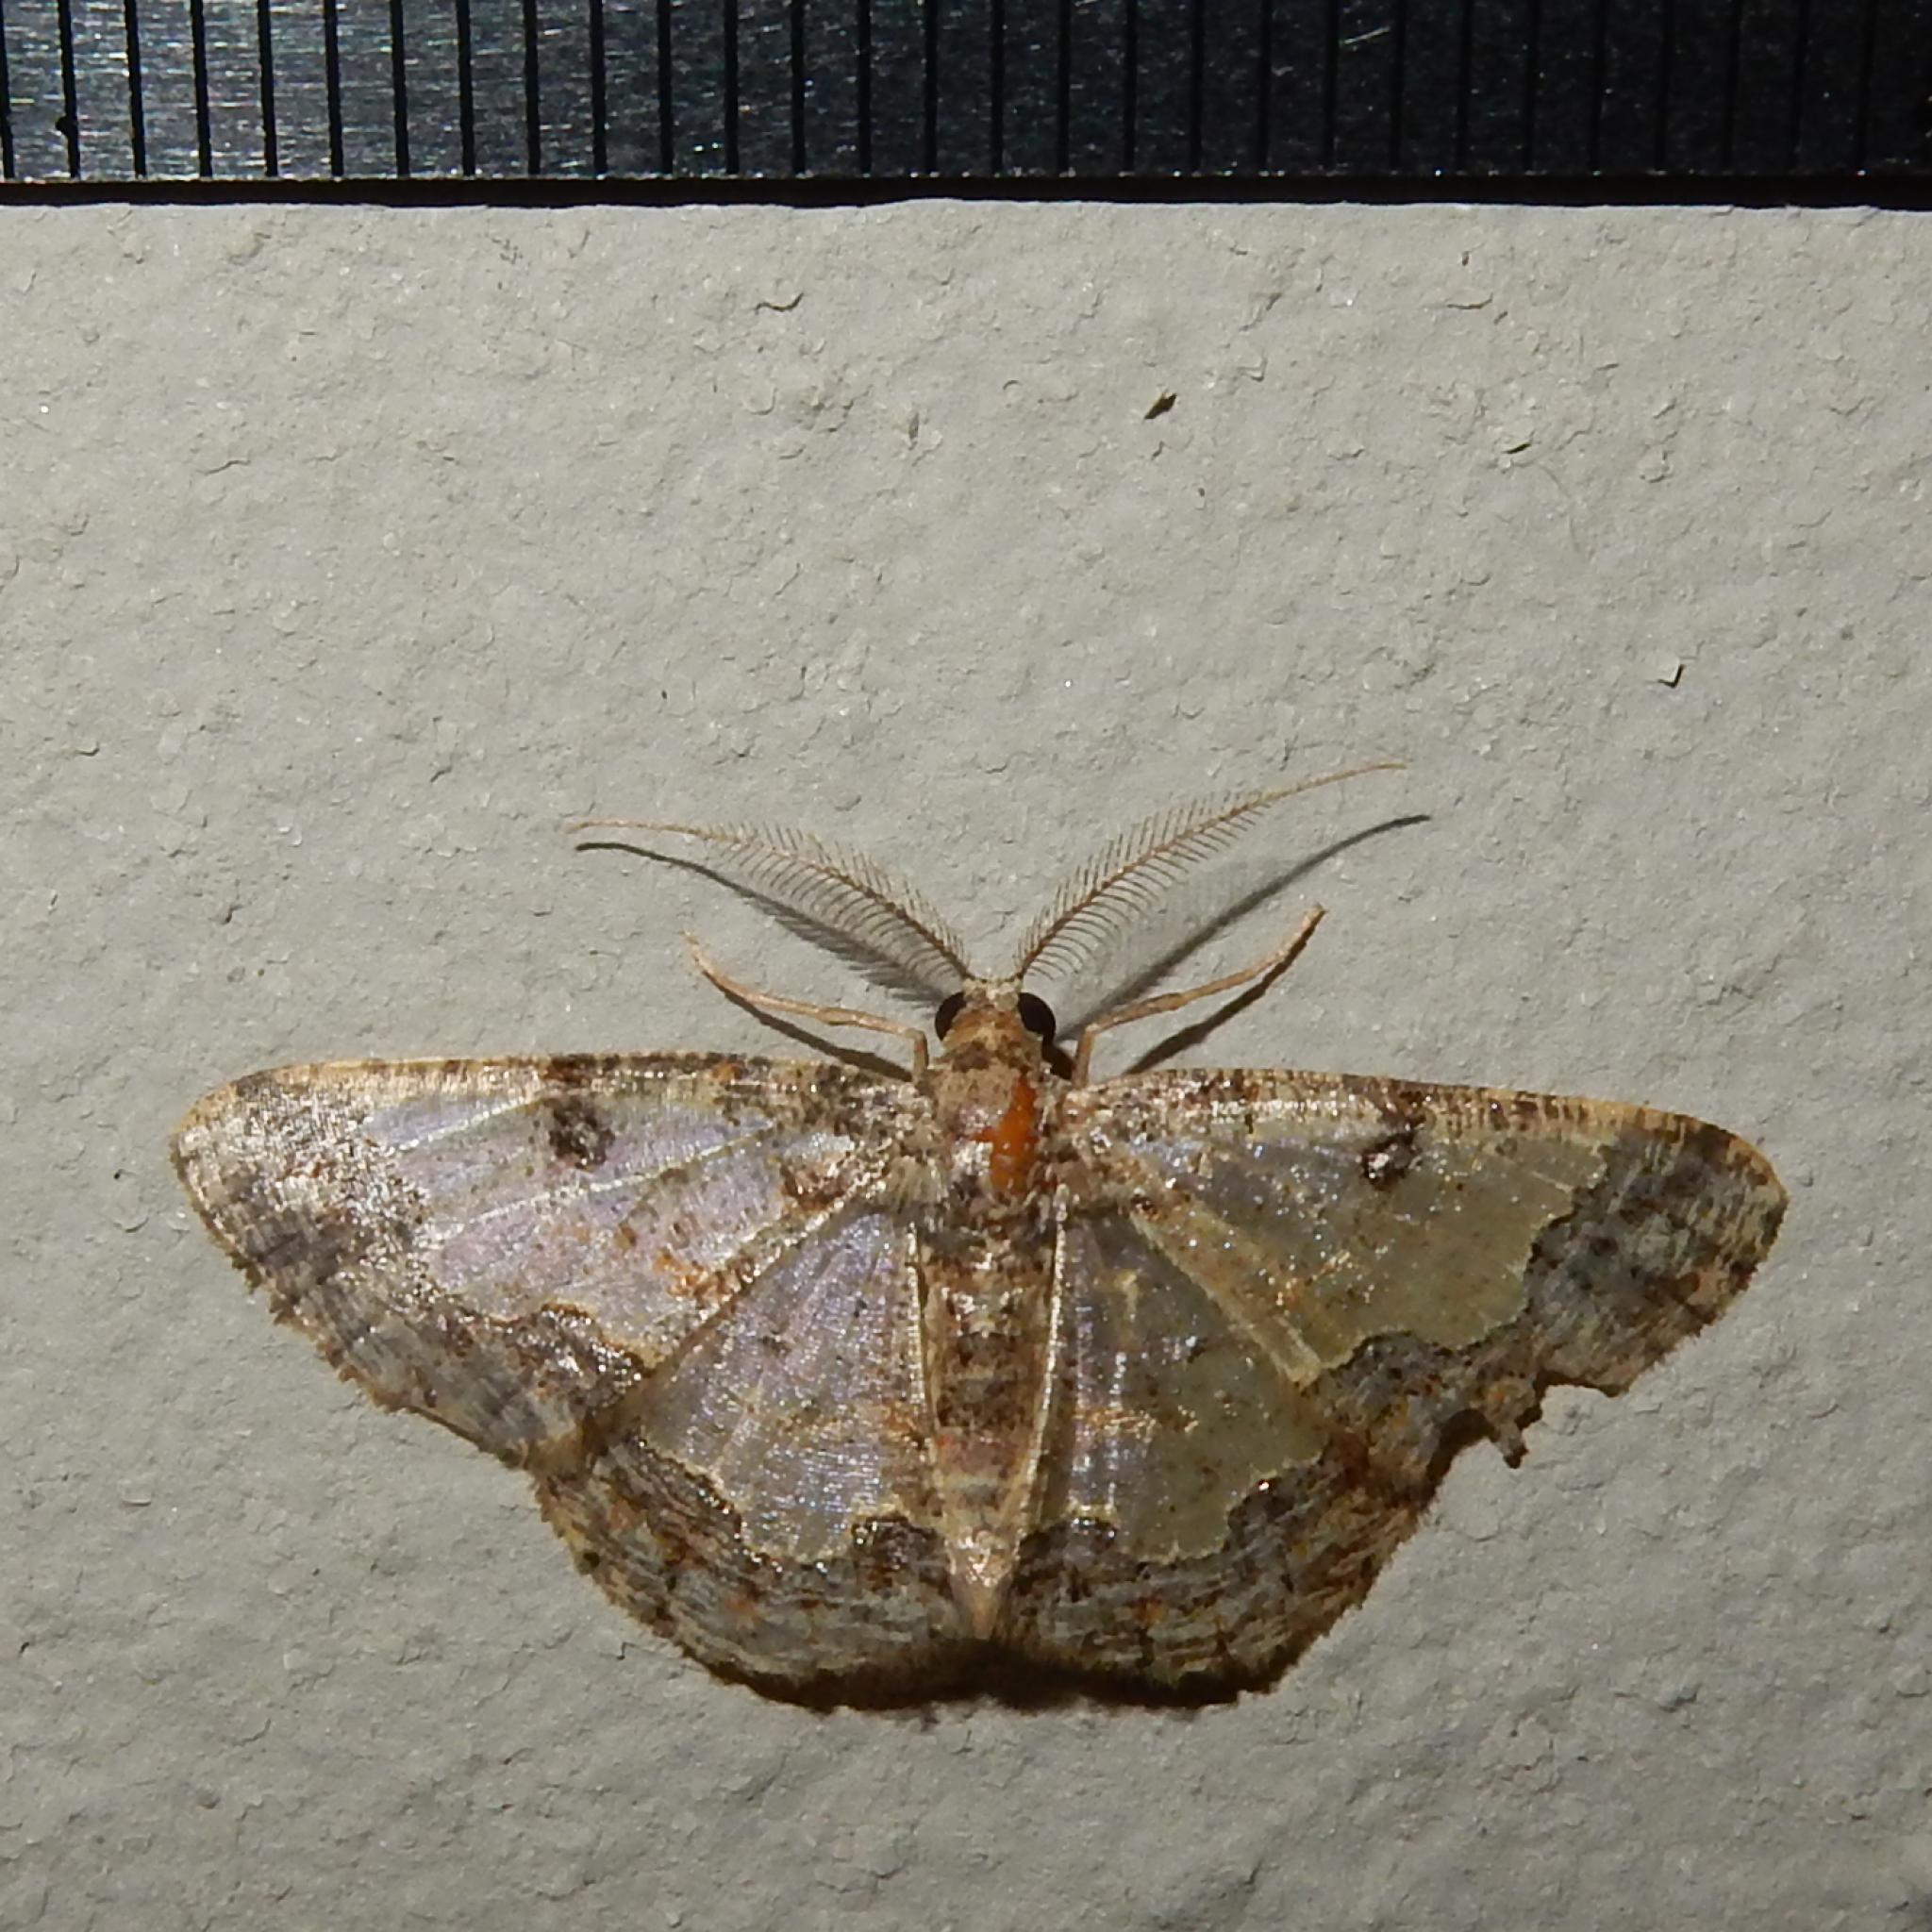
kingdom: Animalia
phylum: Arthropoda
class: Insecta
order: Lepidoptera
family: Geometridae
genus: Zamarada
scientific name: Zamarada pulverosa
